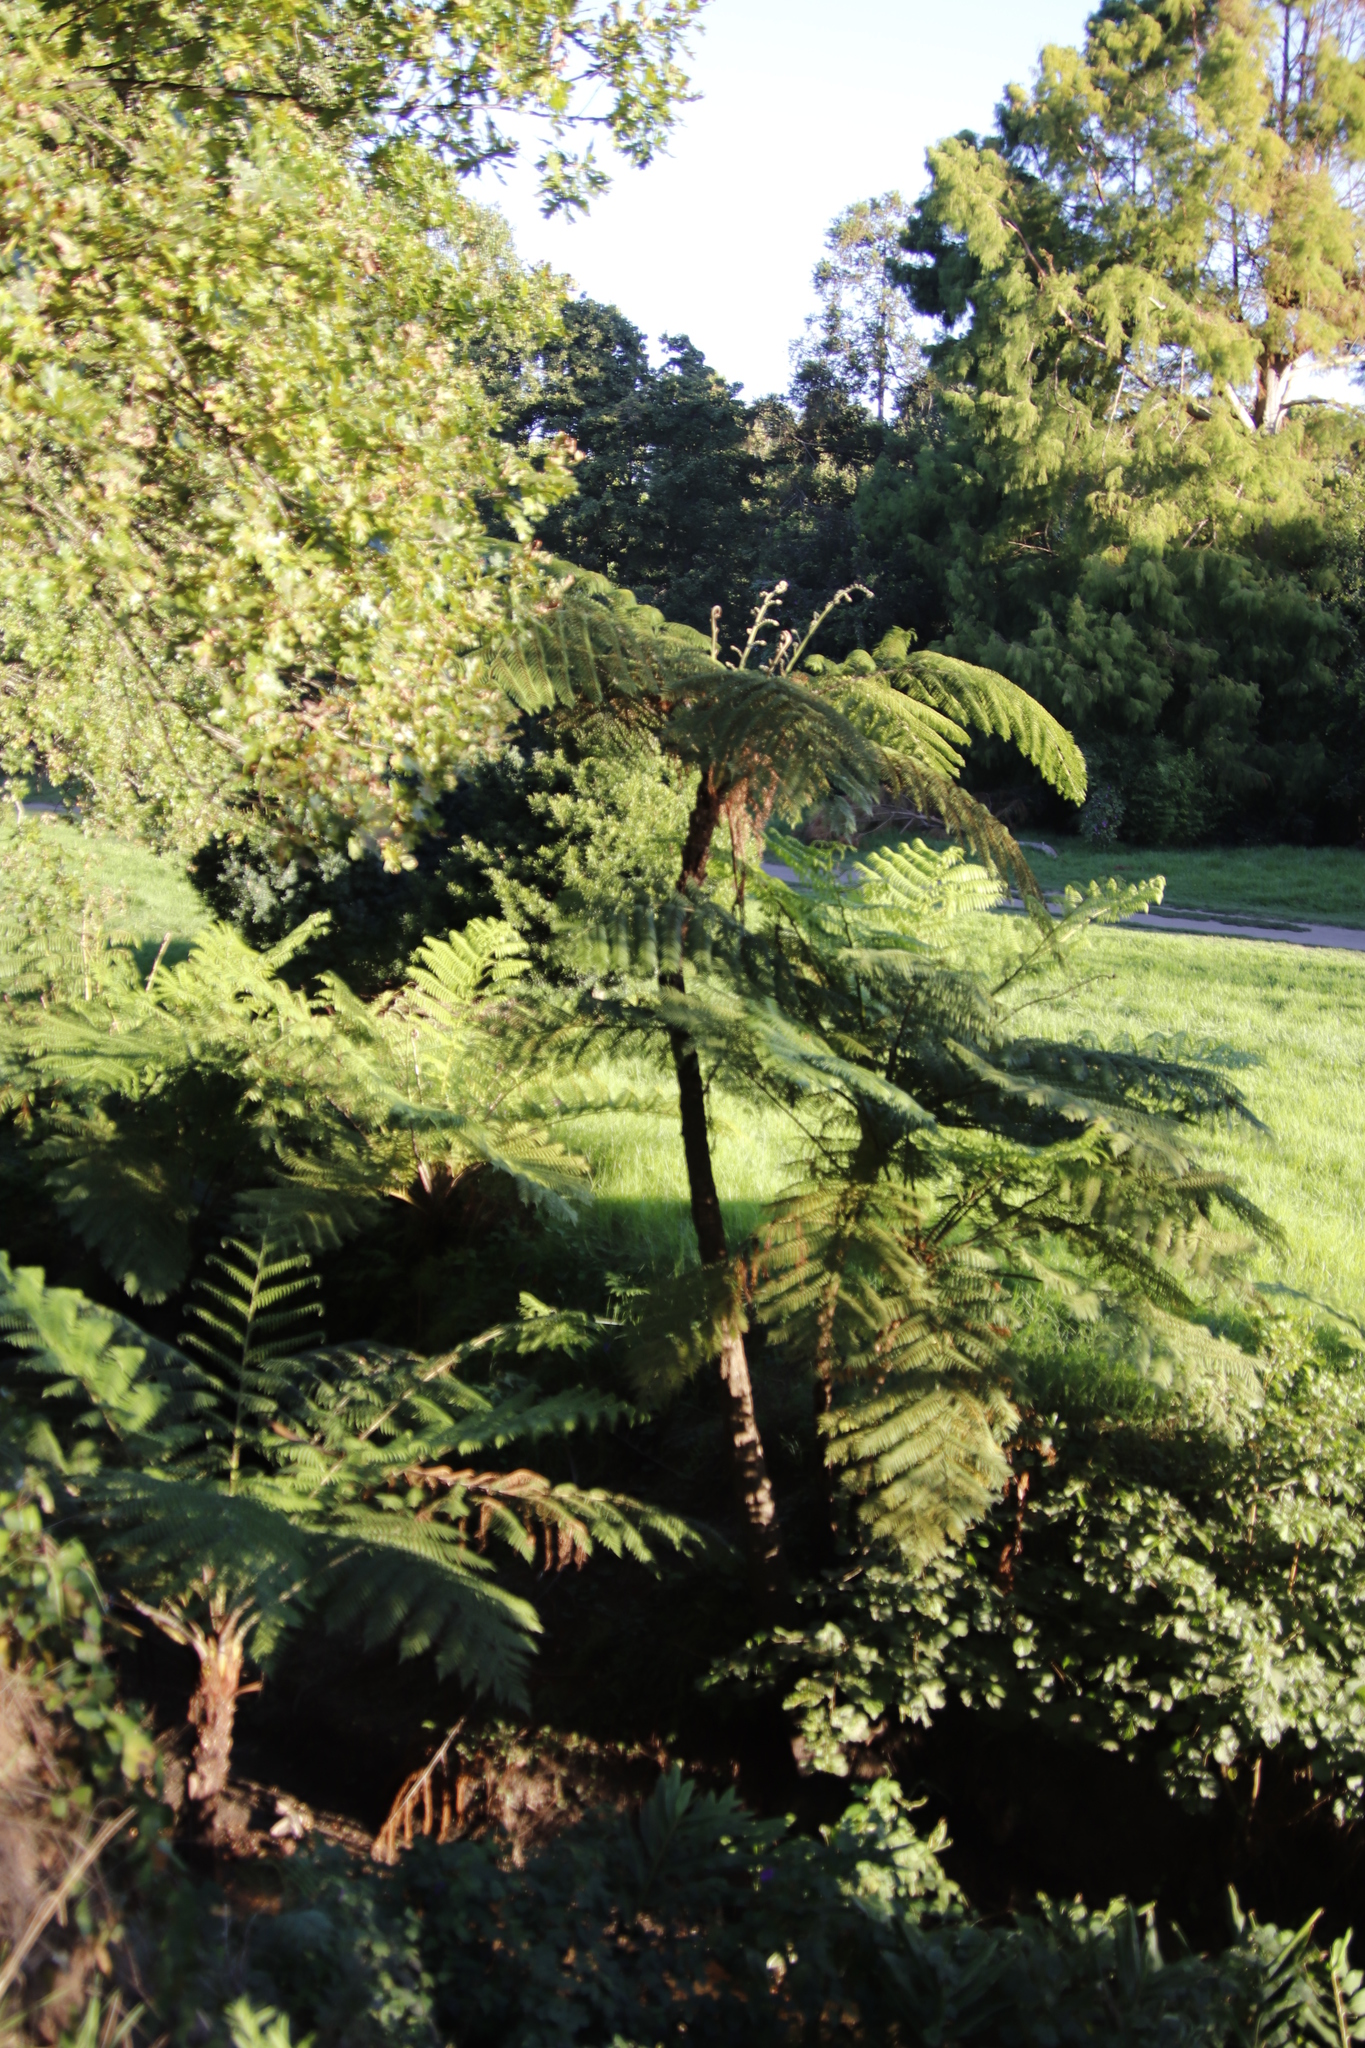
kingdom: Plantae
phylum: Tracheophyta
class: Polypodiopsida
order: Cyatheales
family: Cyatheaceae
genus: Sphaeropteris
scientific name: Sphaeropteris cooperi
